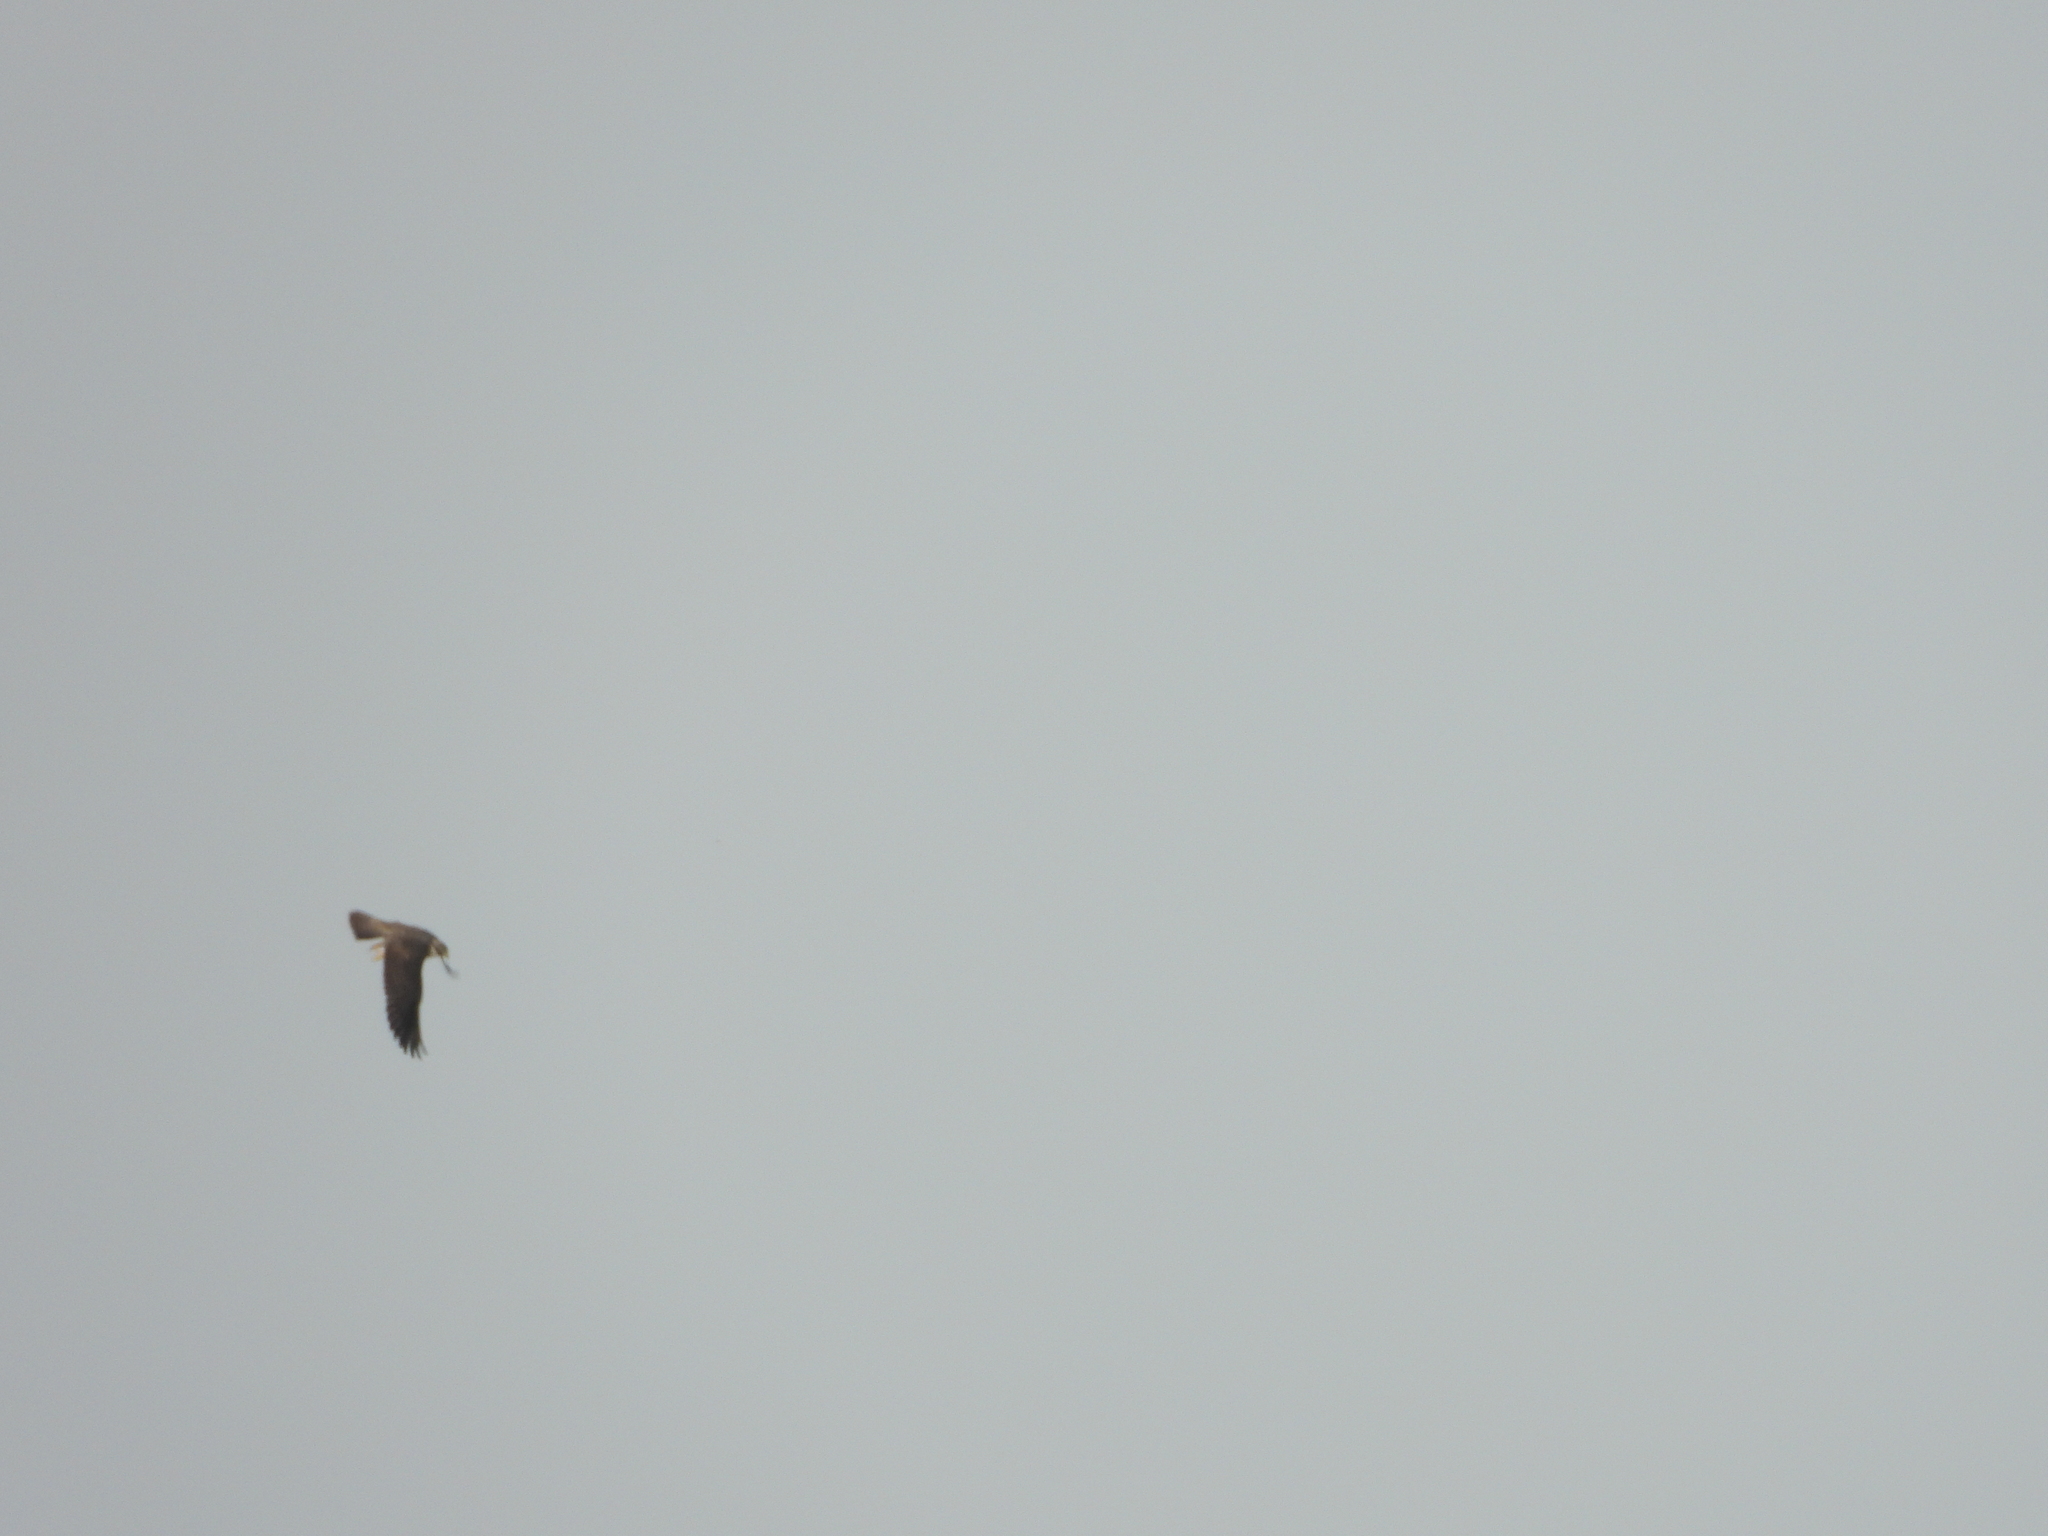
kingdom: Animalia
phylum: Chordata
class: Aves
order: Falconiformes
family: Falconidae
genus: Falco
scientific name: Falco peregrinus
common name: Peregrine falcon
